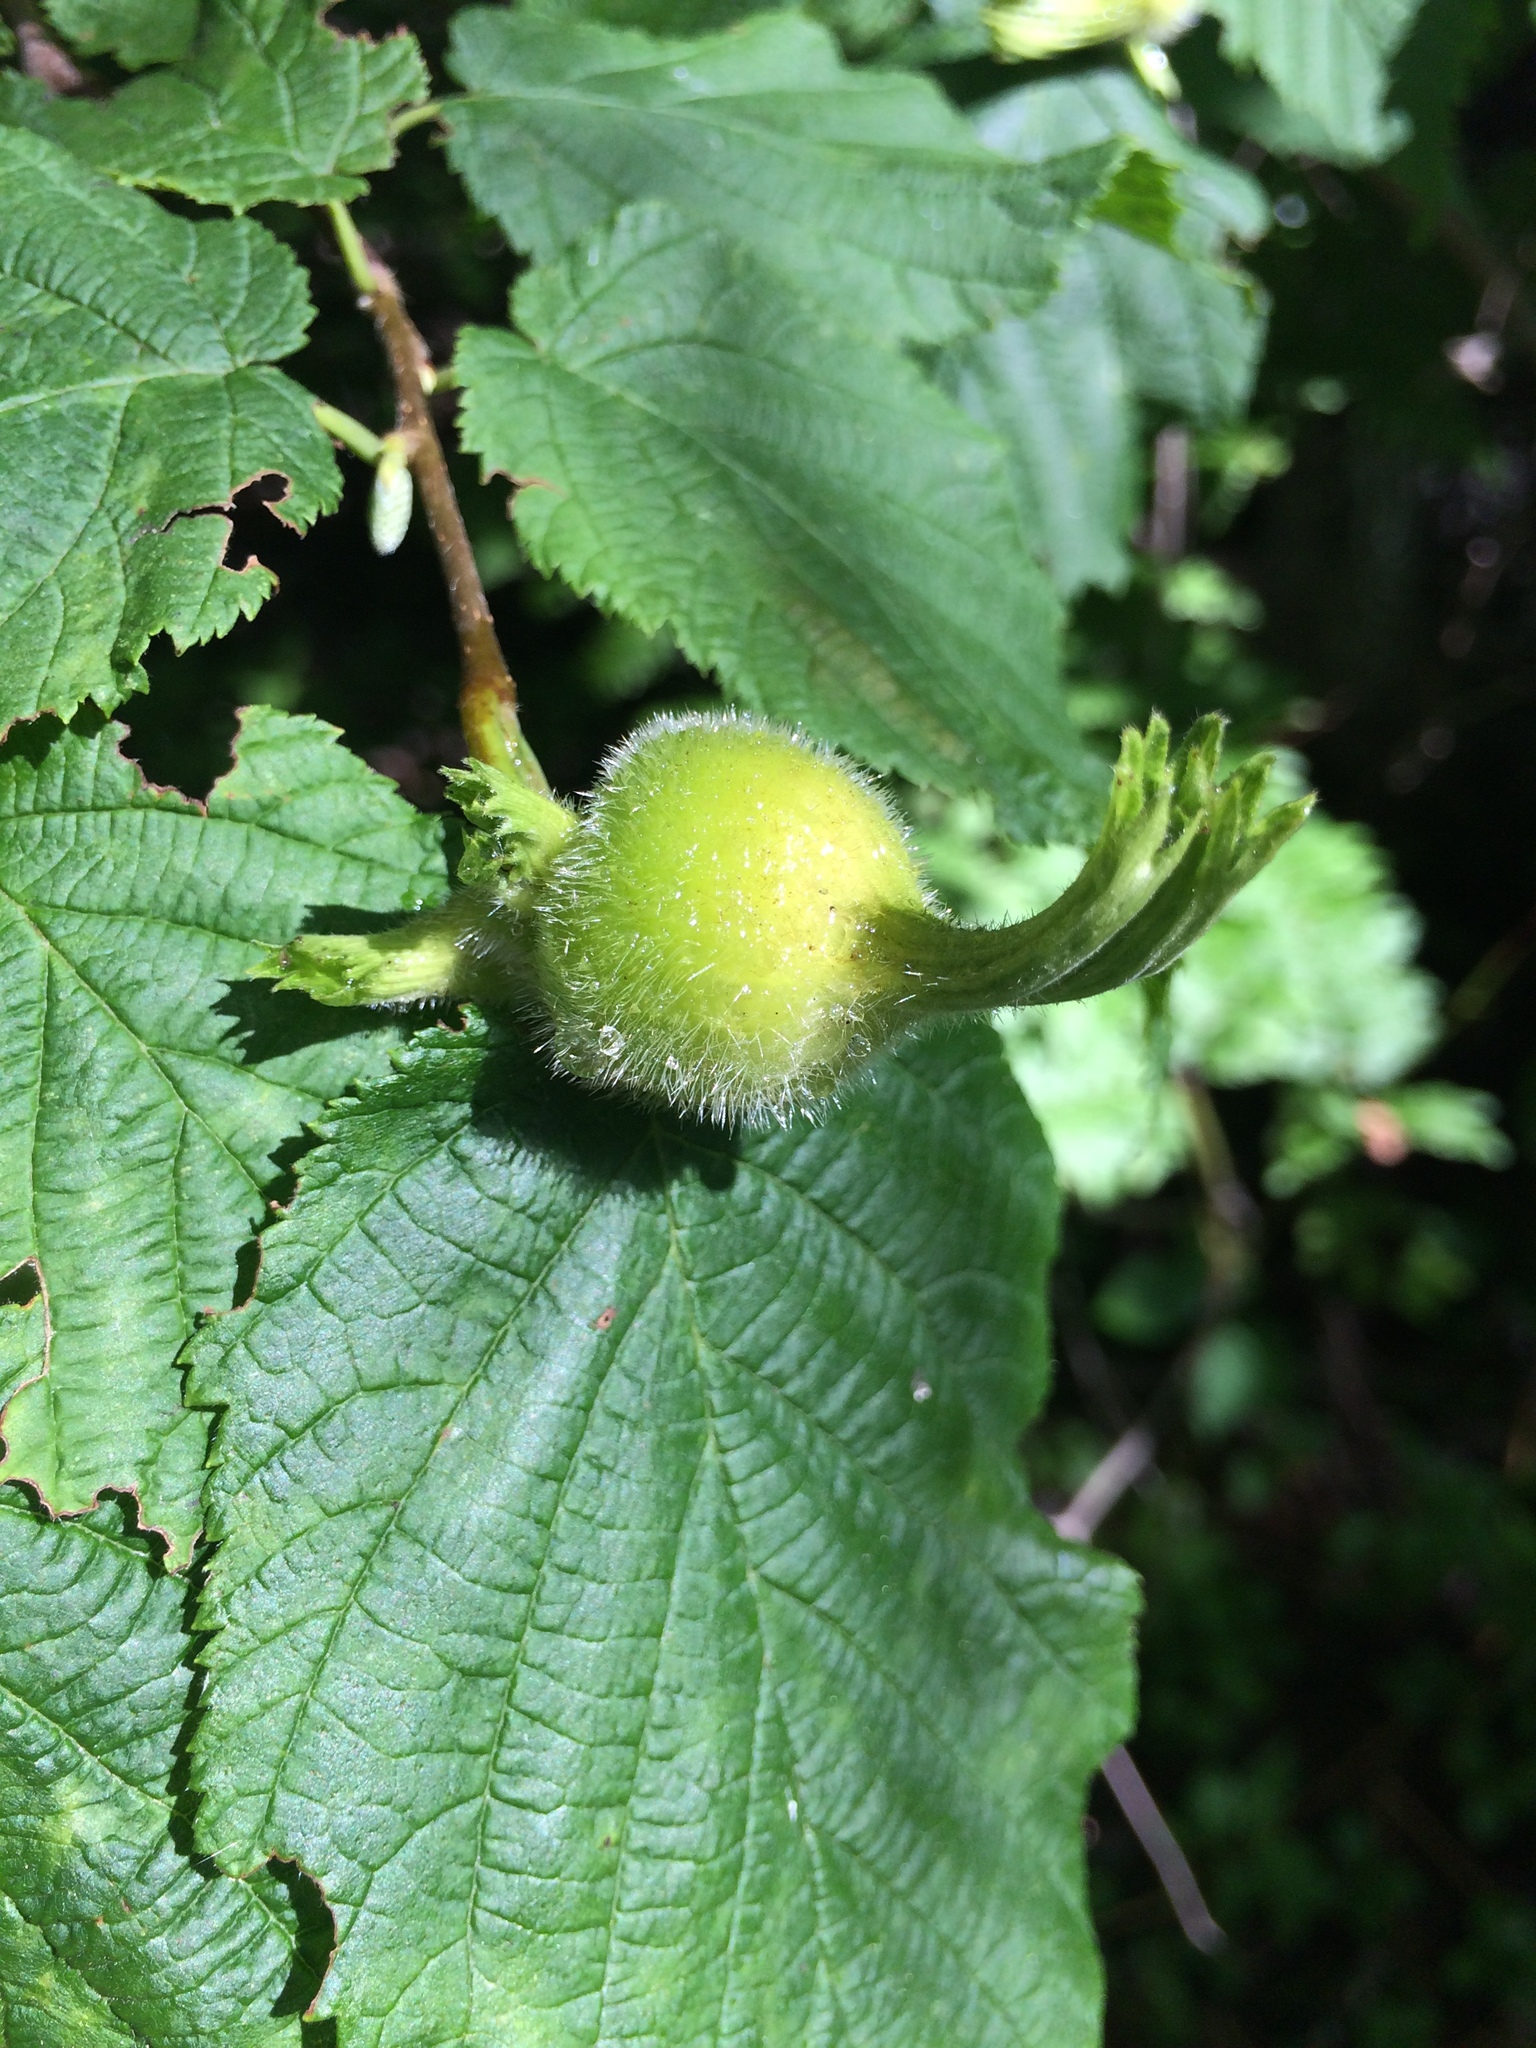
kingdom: Plantae
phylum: Tracheophyta
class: Magnoliopsida
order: Fagales
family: Betulaceae
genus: Corylus
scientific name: Corylus cornuta
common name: Beaked hazel
